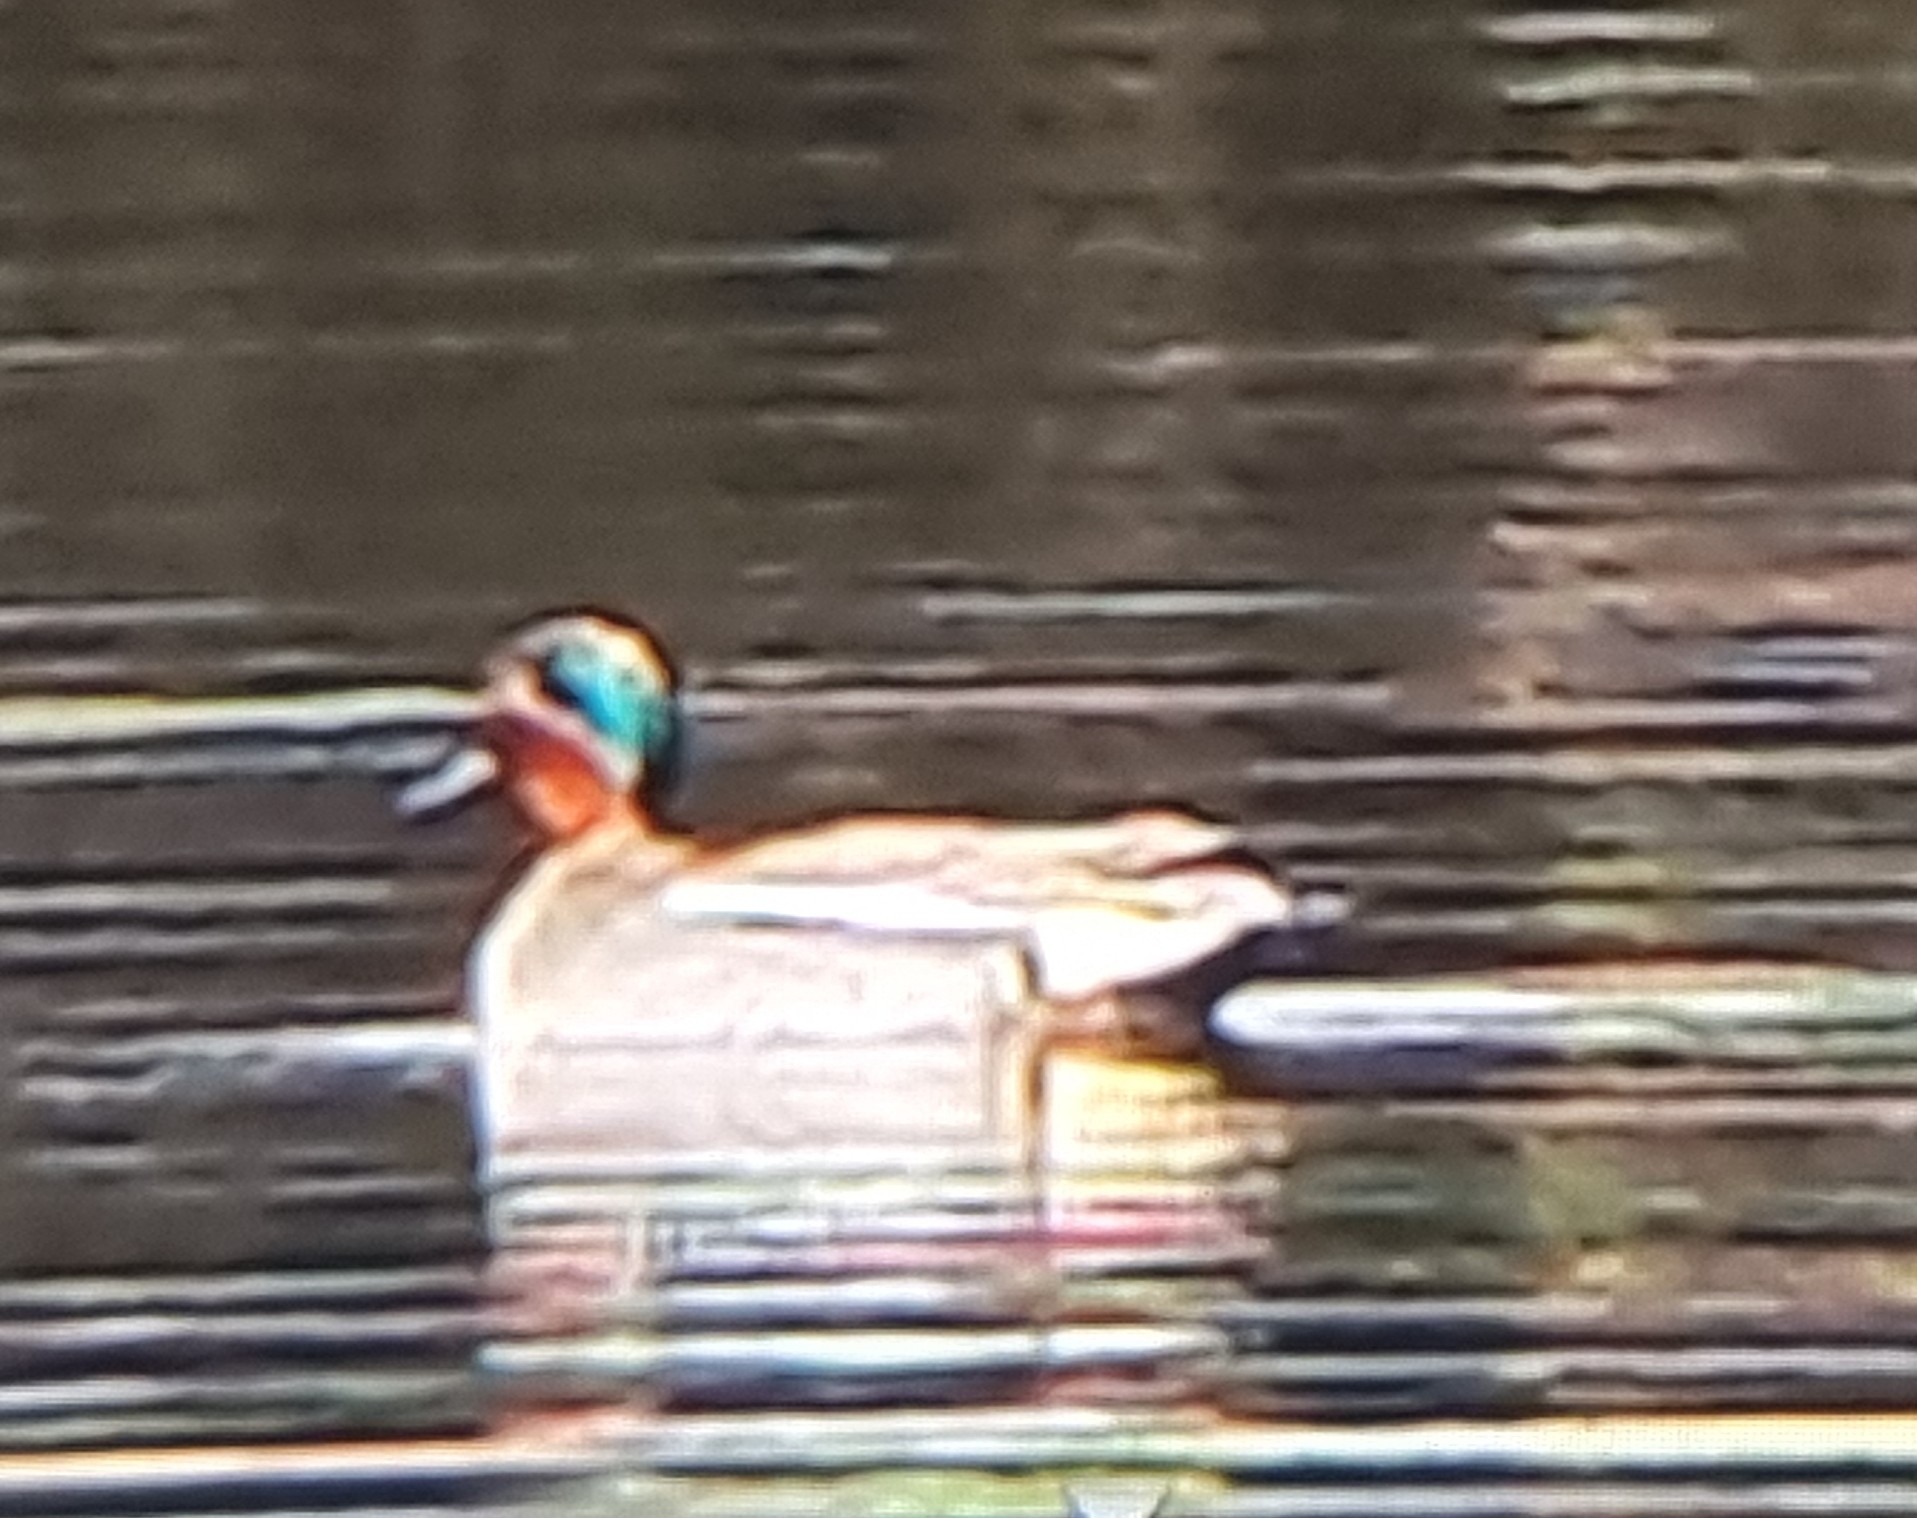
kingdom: Animalia
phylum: Chordata
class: Aves
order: Anseriformes
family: Anatidae
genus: Anas
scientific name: Anas crecca
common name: Eurasian teal
